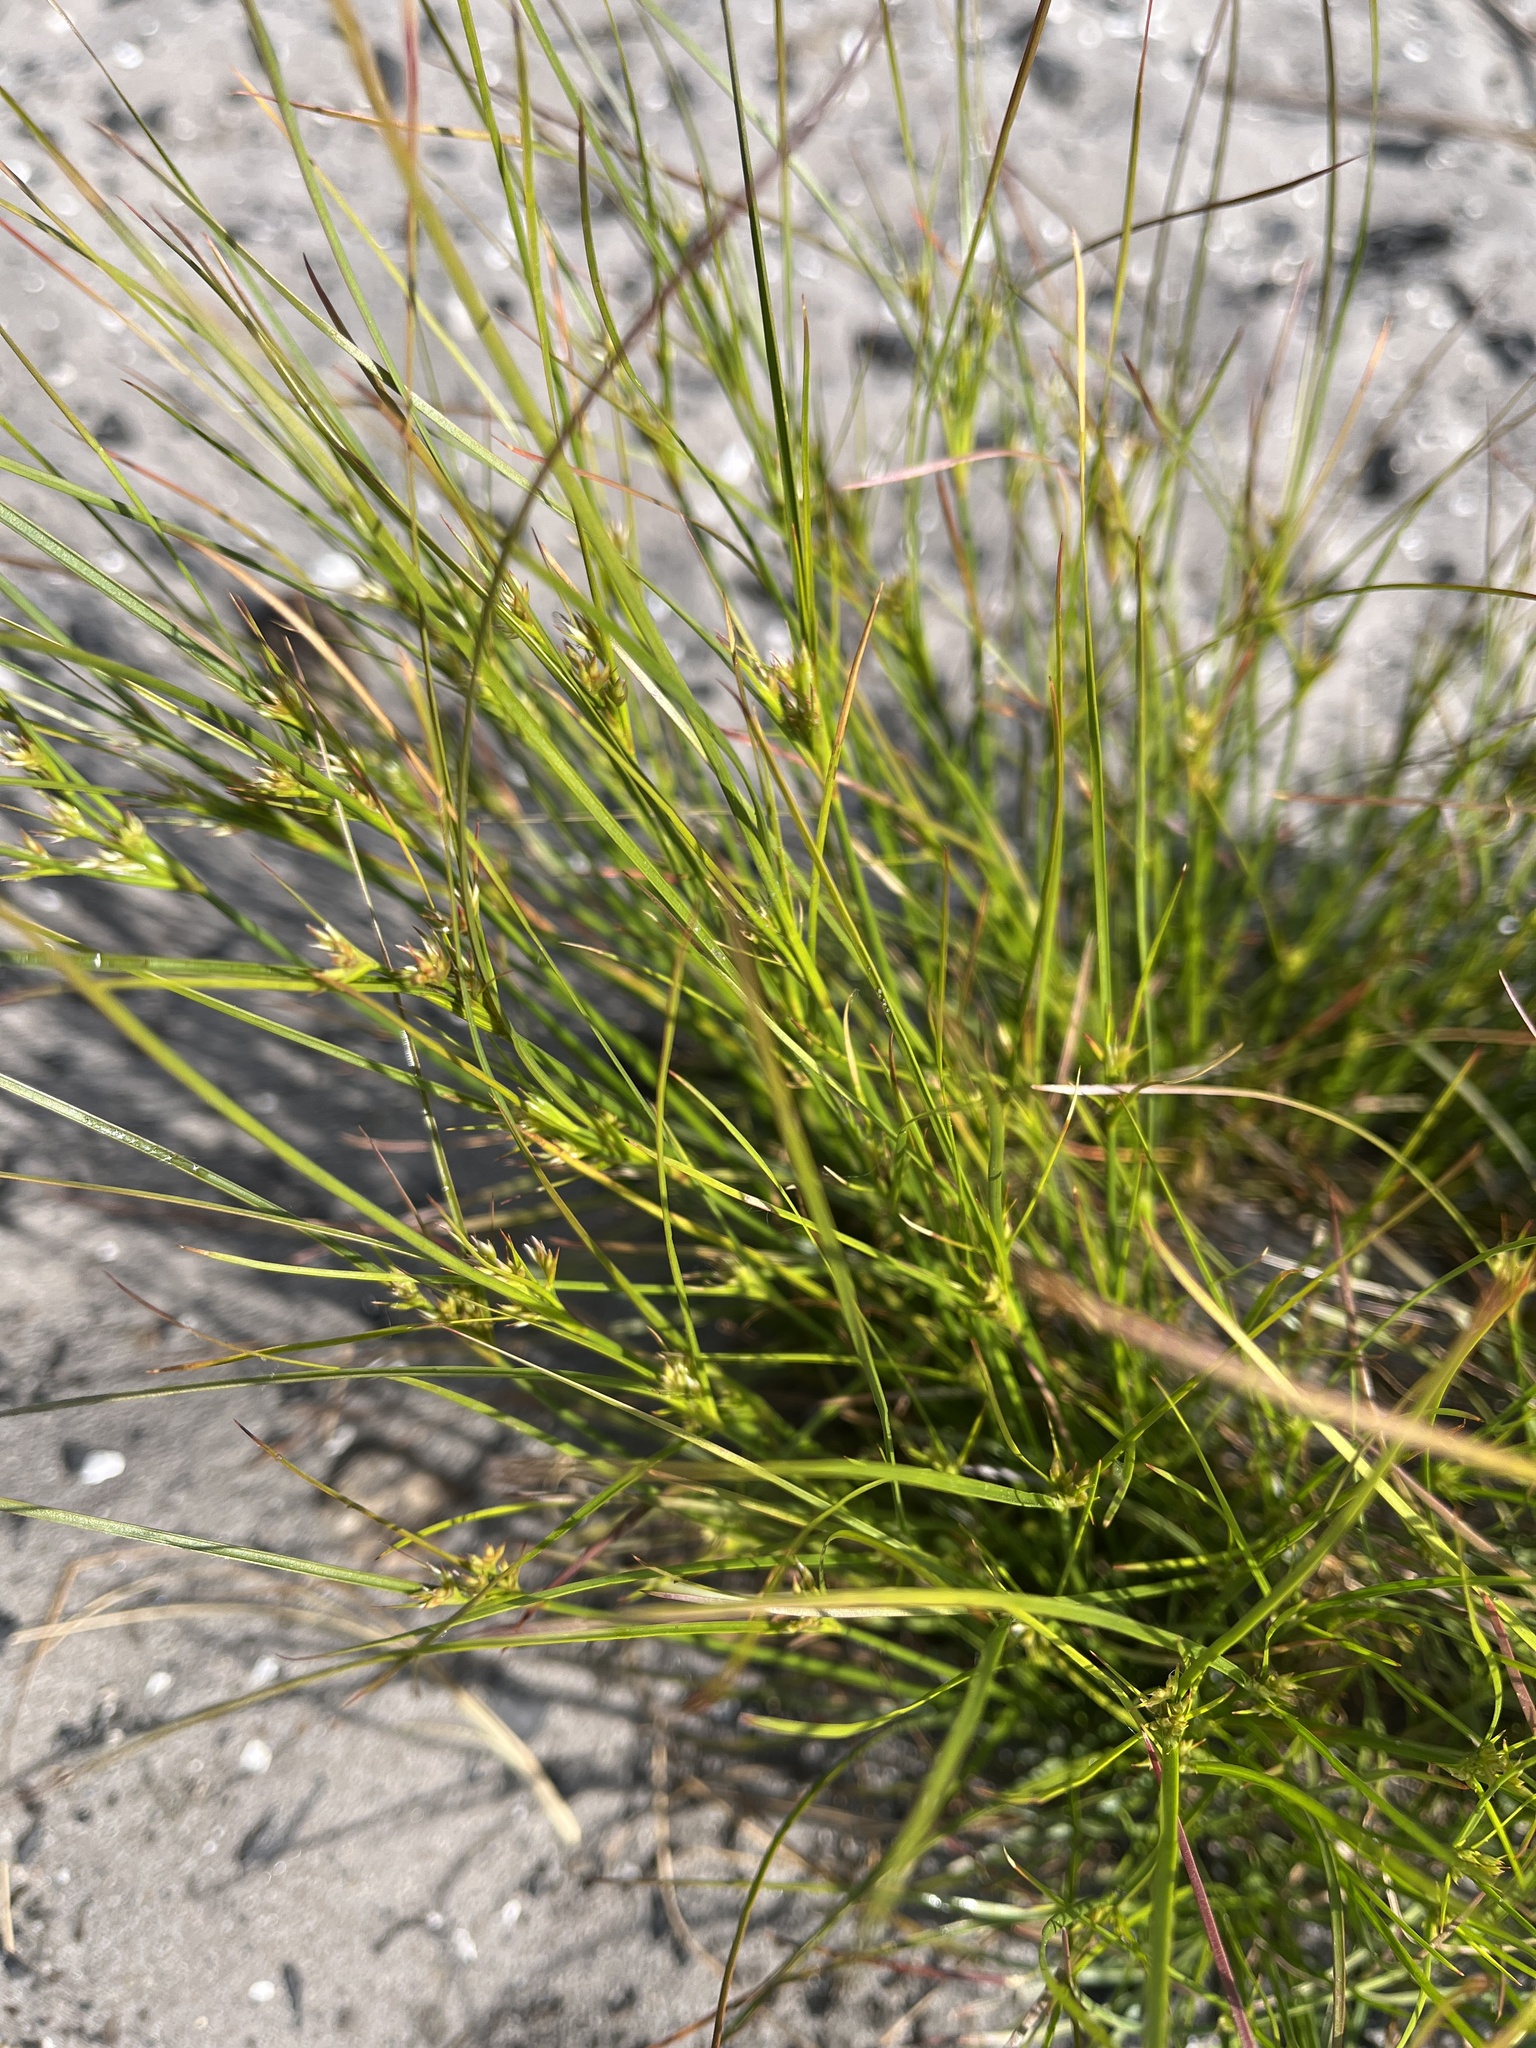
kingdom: Plantae
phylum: Tracheophyta
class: Liliopsida
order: Poales
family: Juncaceae
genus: Juncus
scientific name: Juncus tenuis
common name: Slender rush
